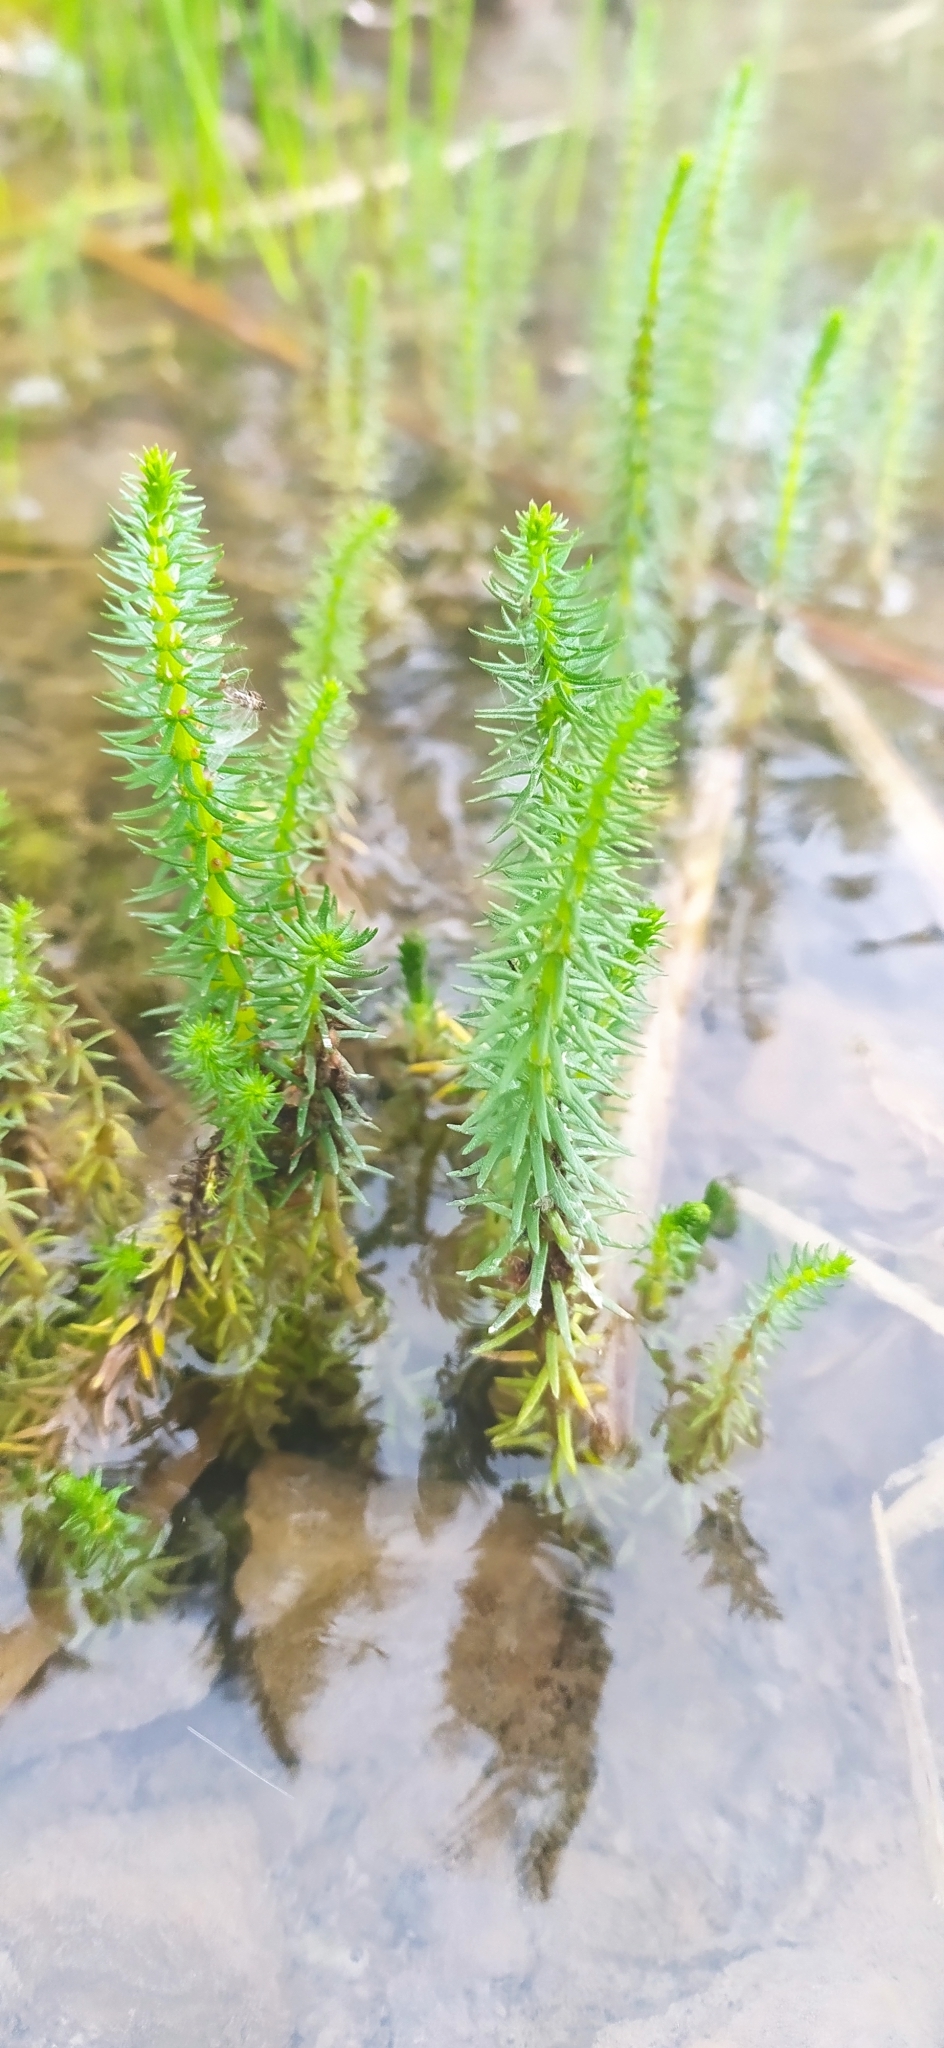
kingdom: Plantae
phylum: Tracheophyta
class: Magnoliopsida
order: Lamiales
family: Plantaginaceae
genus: Hippuris
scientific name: Hippuris vulgaris
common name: Mare's-tail
